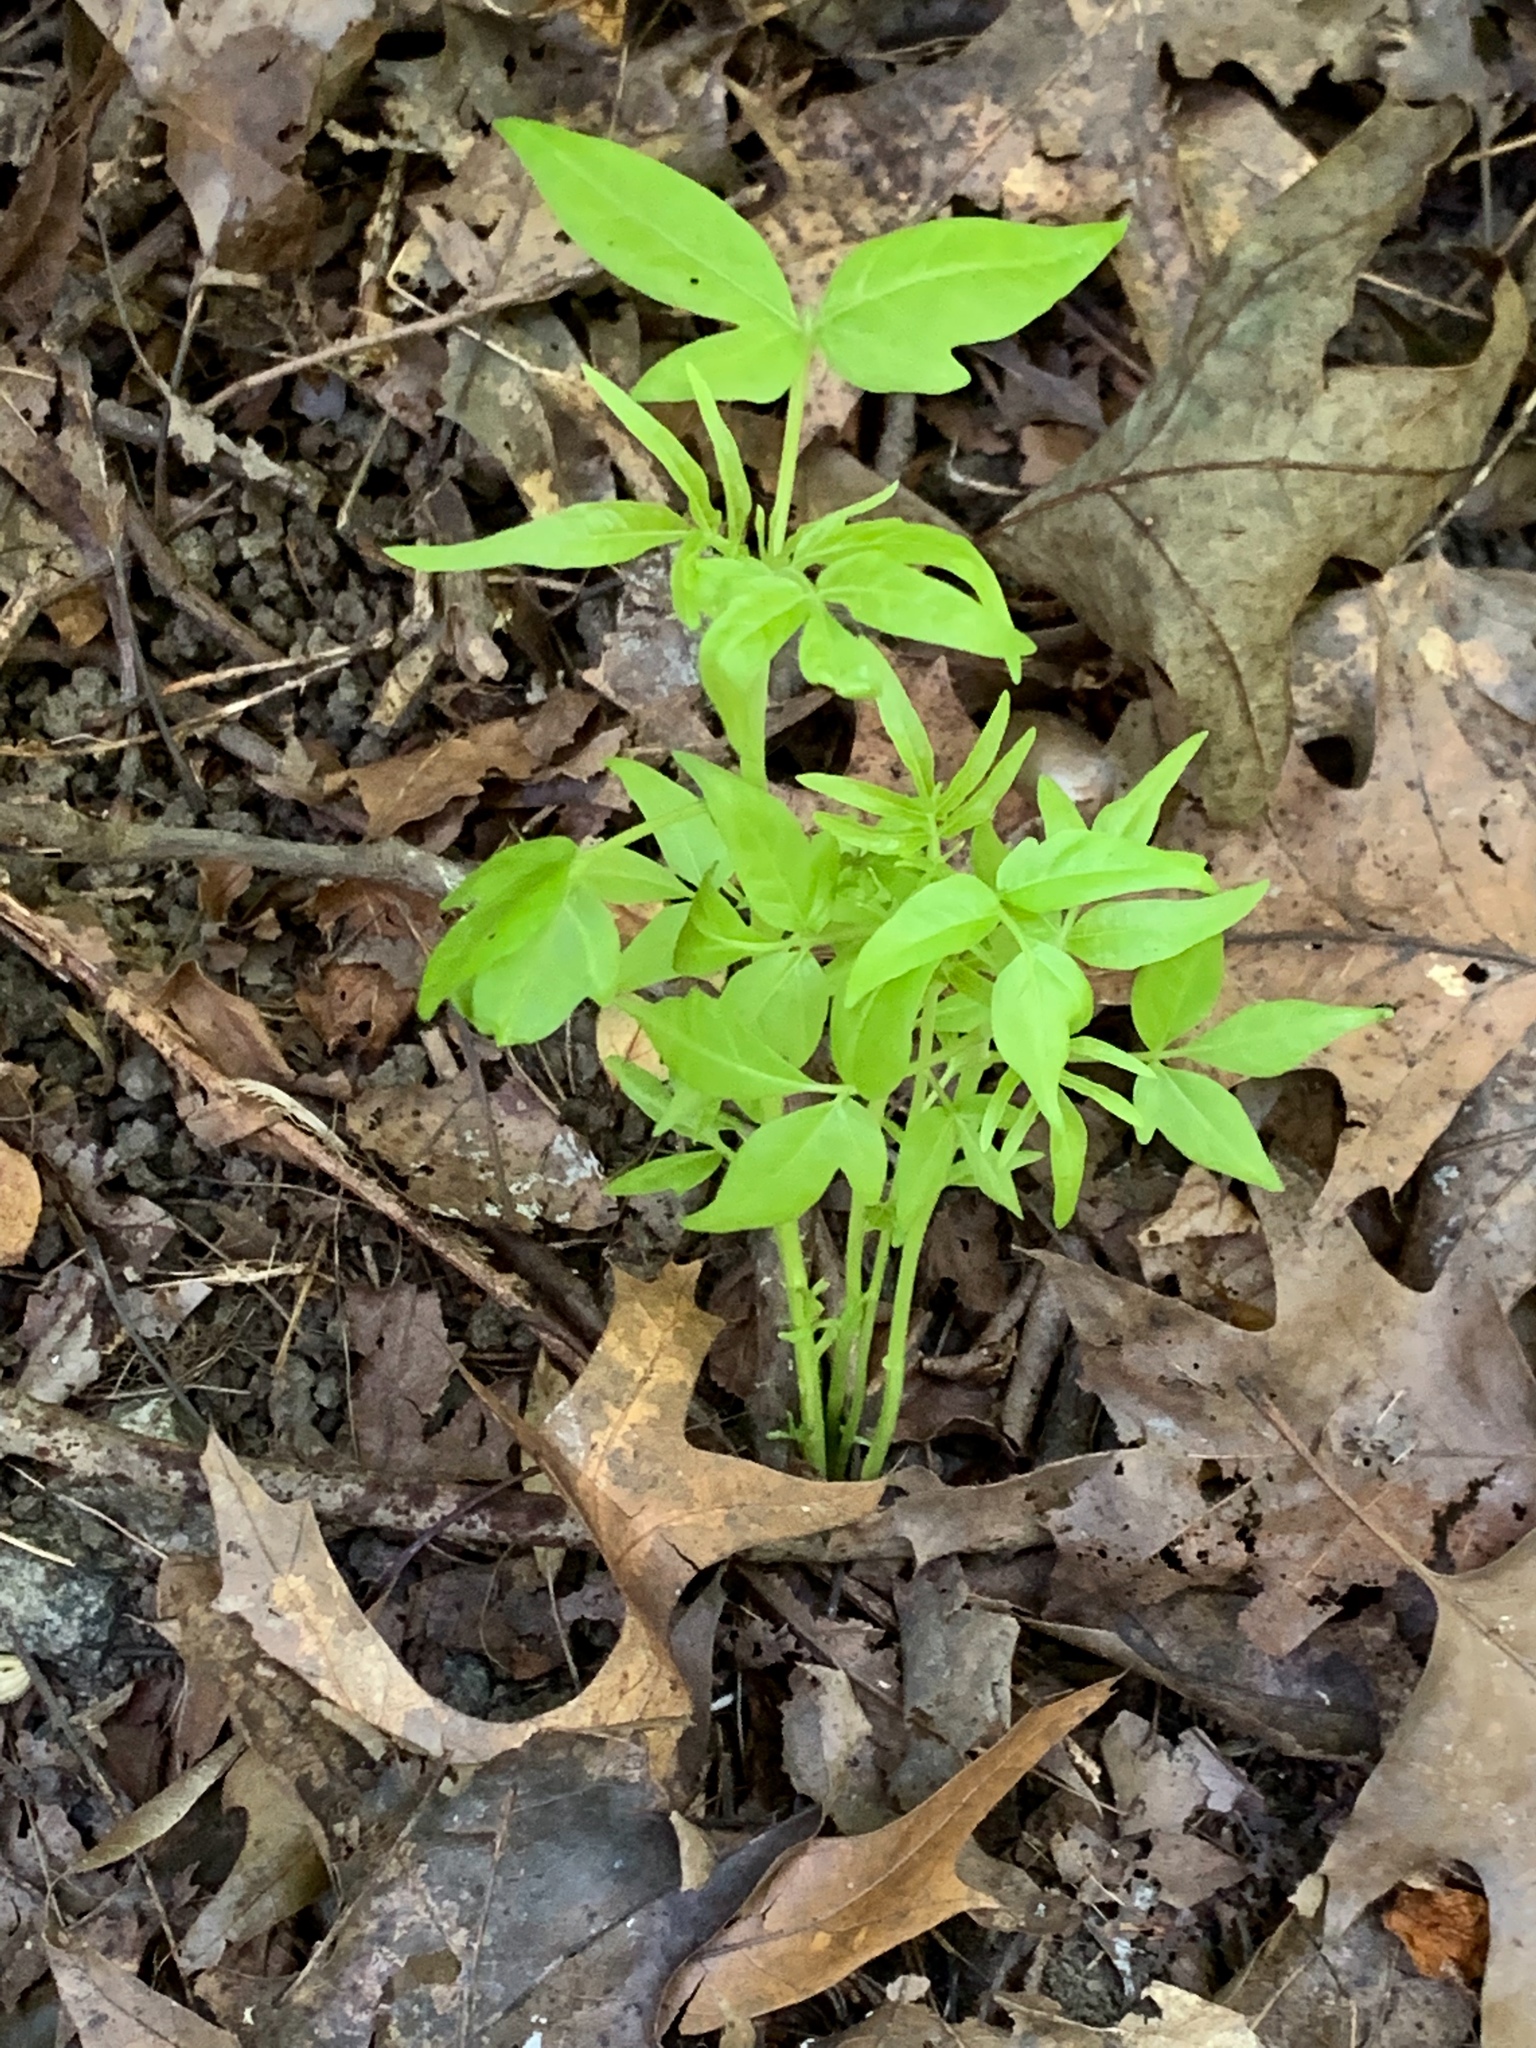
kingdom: Plantae
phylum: Tracheophyta
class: Magnoliopsida
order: Sapindales
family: Simaroubaceae
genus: Ailanthus
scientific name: Ailanthus altissima
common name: Tree-of-heaven
